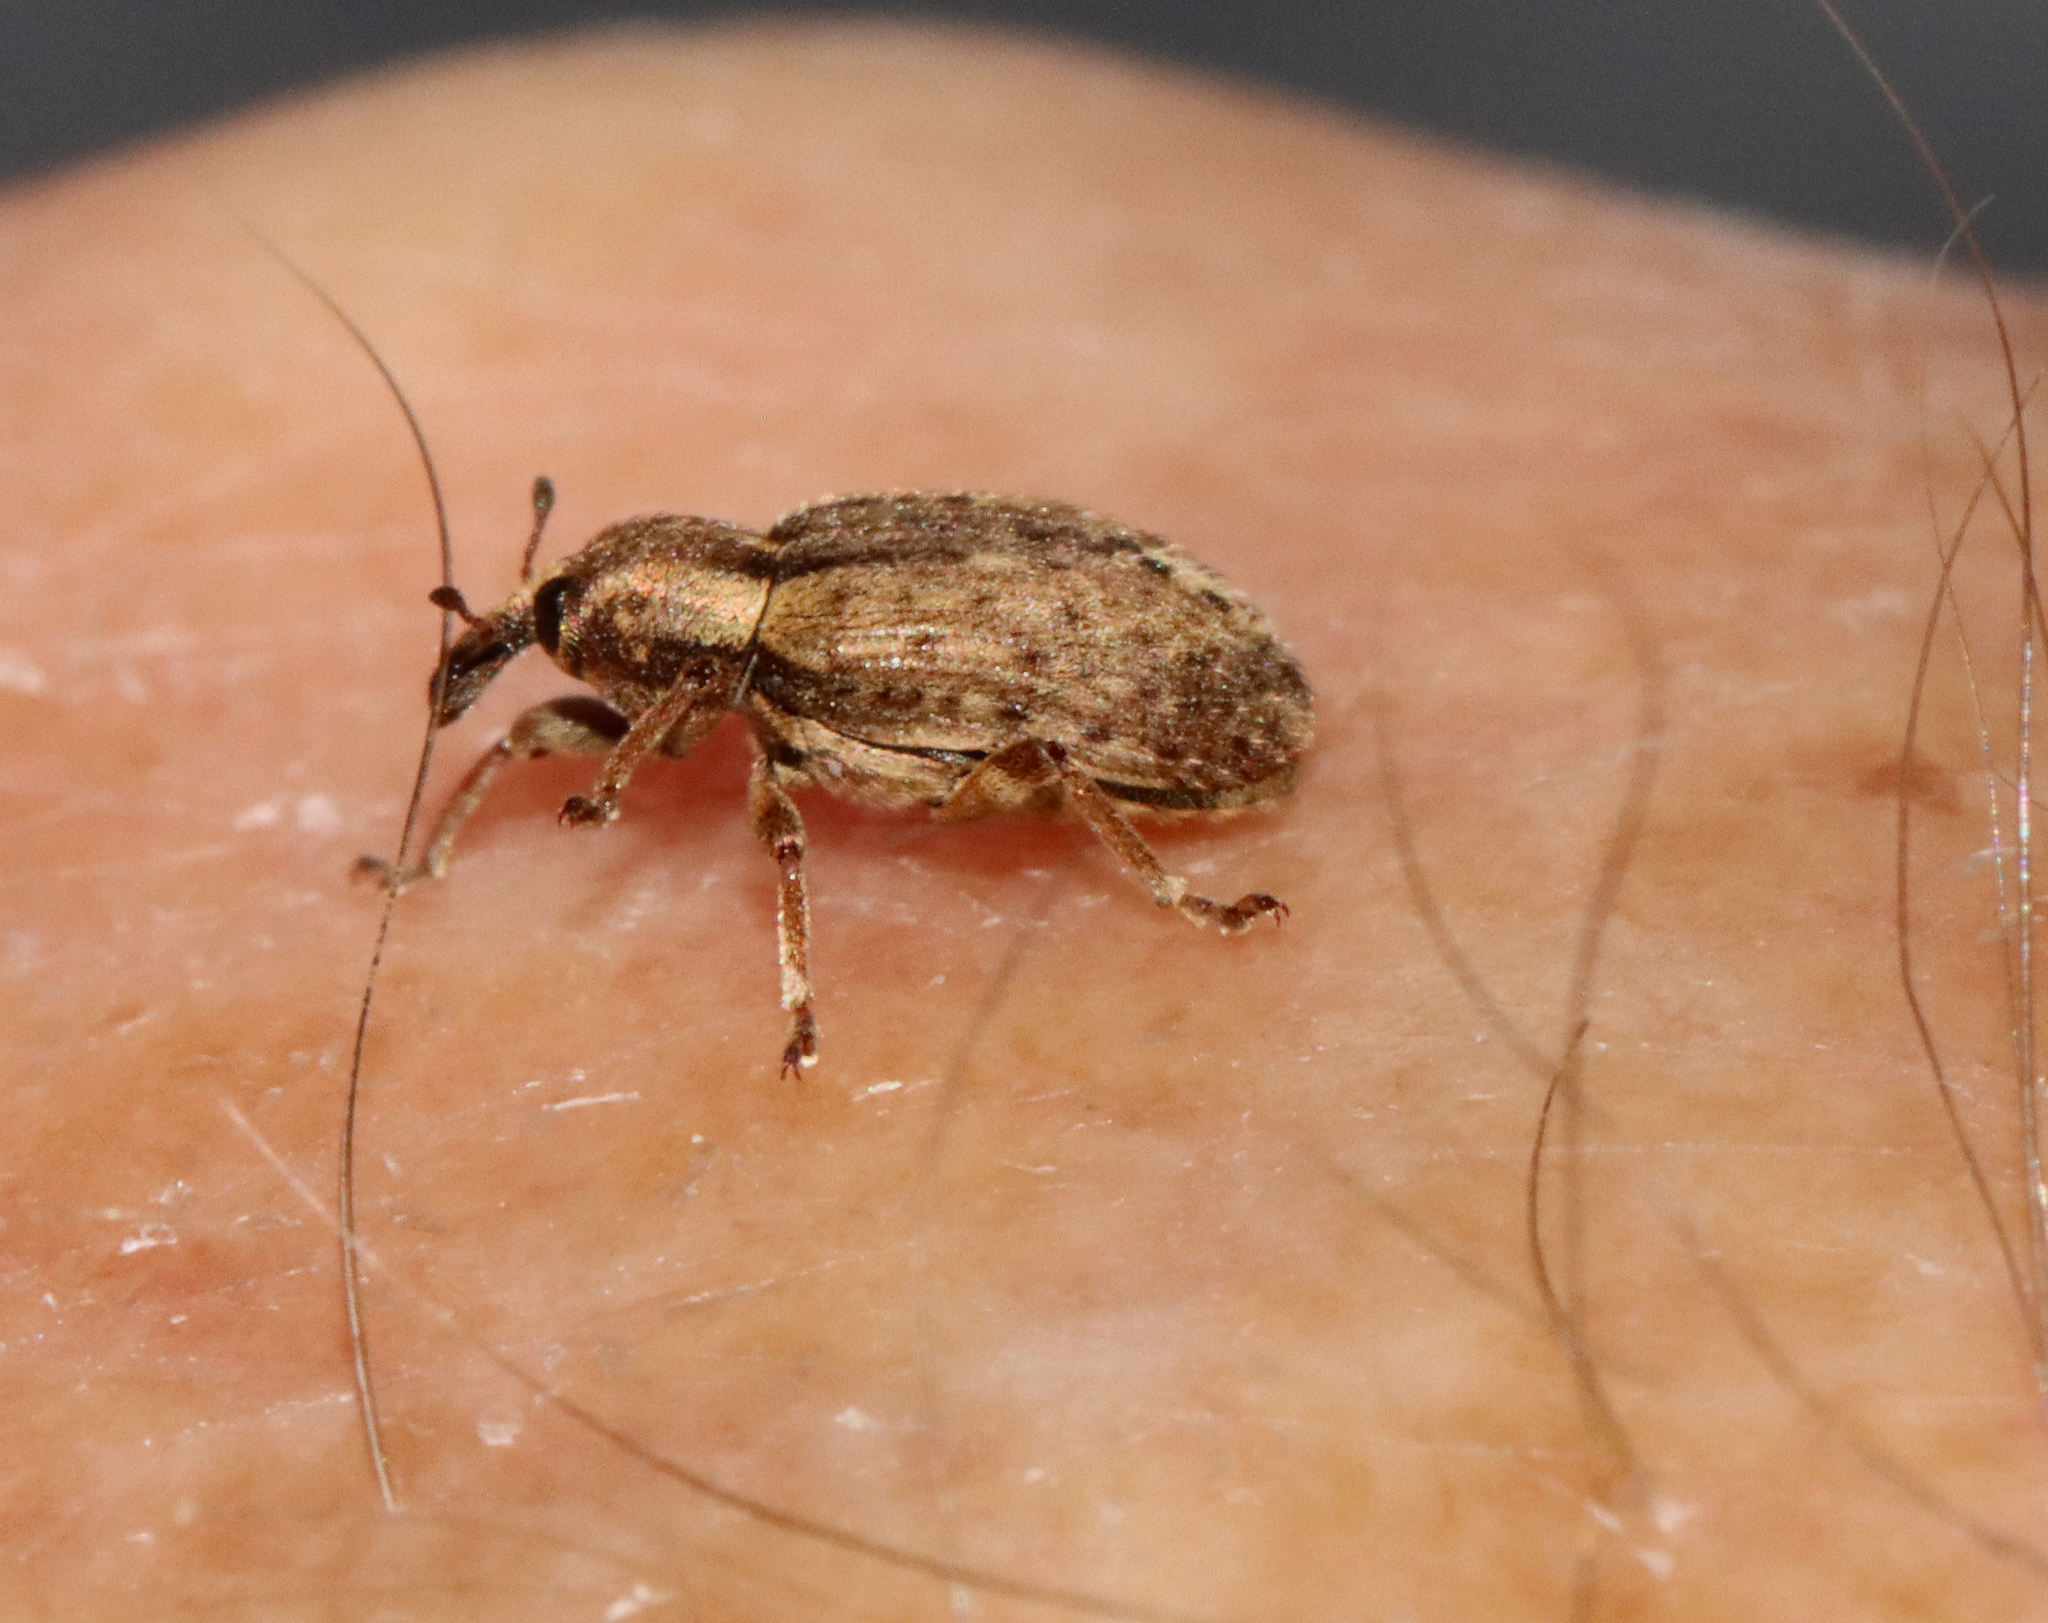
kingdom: Animalia
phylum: Arthropoda
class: Insecta
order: Coleoptera
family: Curculionidae
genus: Hypera
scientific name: Hypera postica
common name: Weevil
